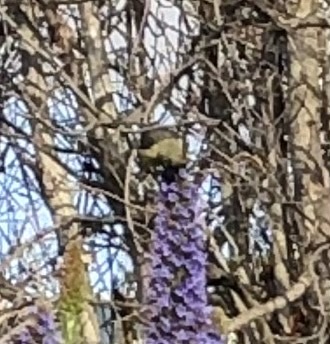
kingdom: Animalia
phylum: Chordata
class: Aves
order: Passeriformes
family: Fringillidae
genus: Spinus
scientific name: Spinus psaltria
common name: Lesser goldfinch
